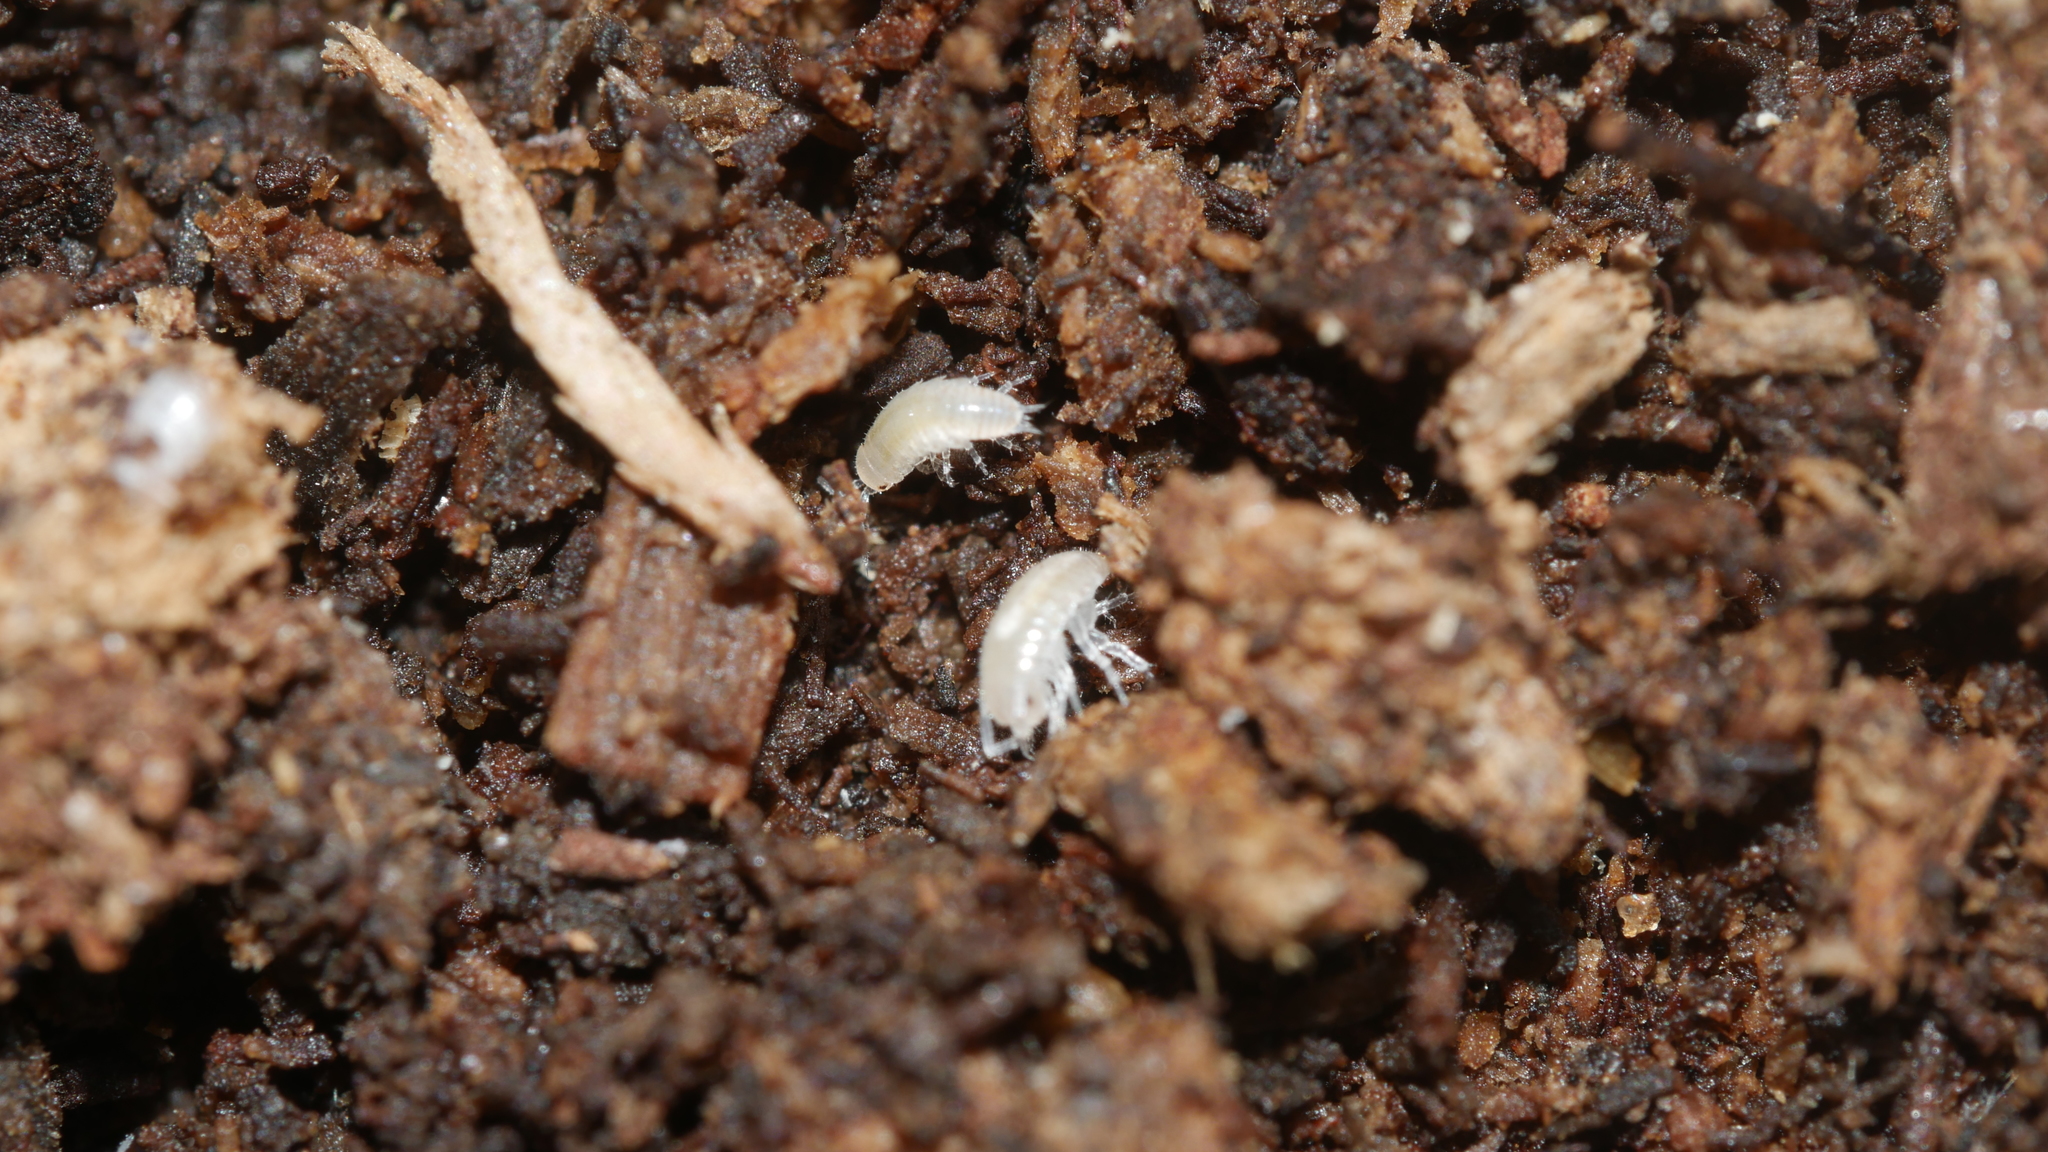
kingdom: Animalia
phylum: Arthropoda
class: Malacostraca
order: Isopoda
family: Philosciidae
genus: Chaetophiloscia
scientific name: Chaetophiloscia sicula
